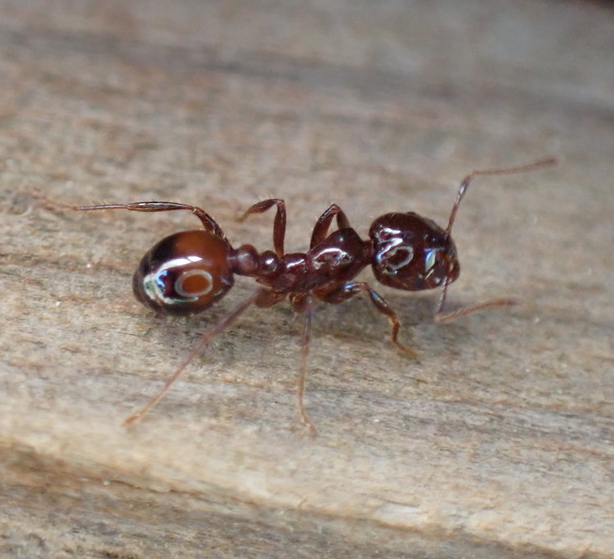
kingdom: Animalia
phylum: Arthropoda
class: Insecta
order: Hymenoptera
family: Formicidae
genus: Solenopsis
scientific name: Solenopsis
